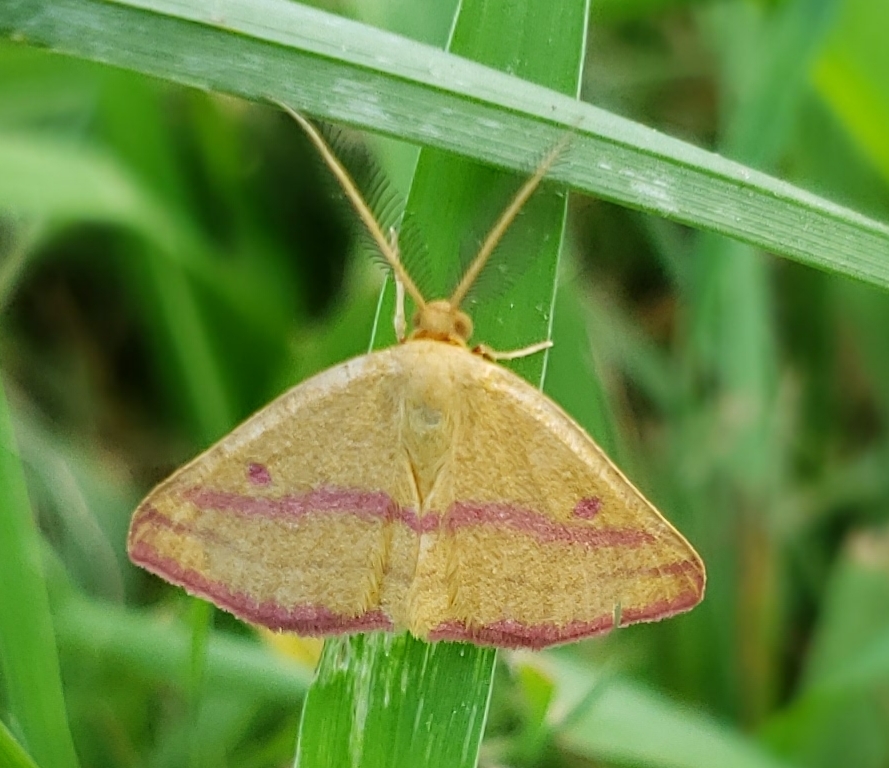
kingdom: Animalia
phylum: Arthropoda
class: Insecta
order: Lepidoptera
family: Geometridae
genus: Haematopis
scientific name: Haematopis grataria
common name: Chickweed geometer
